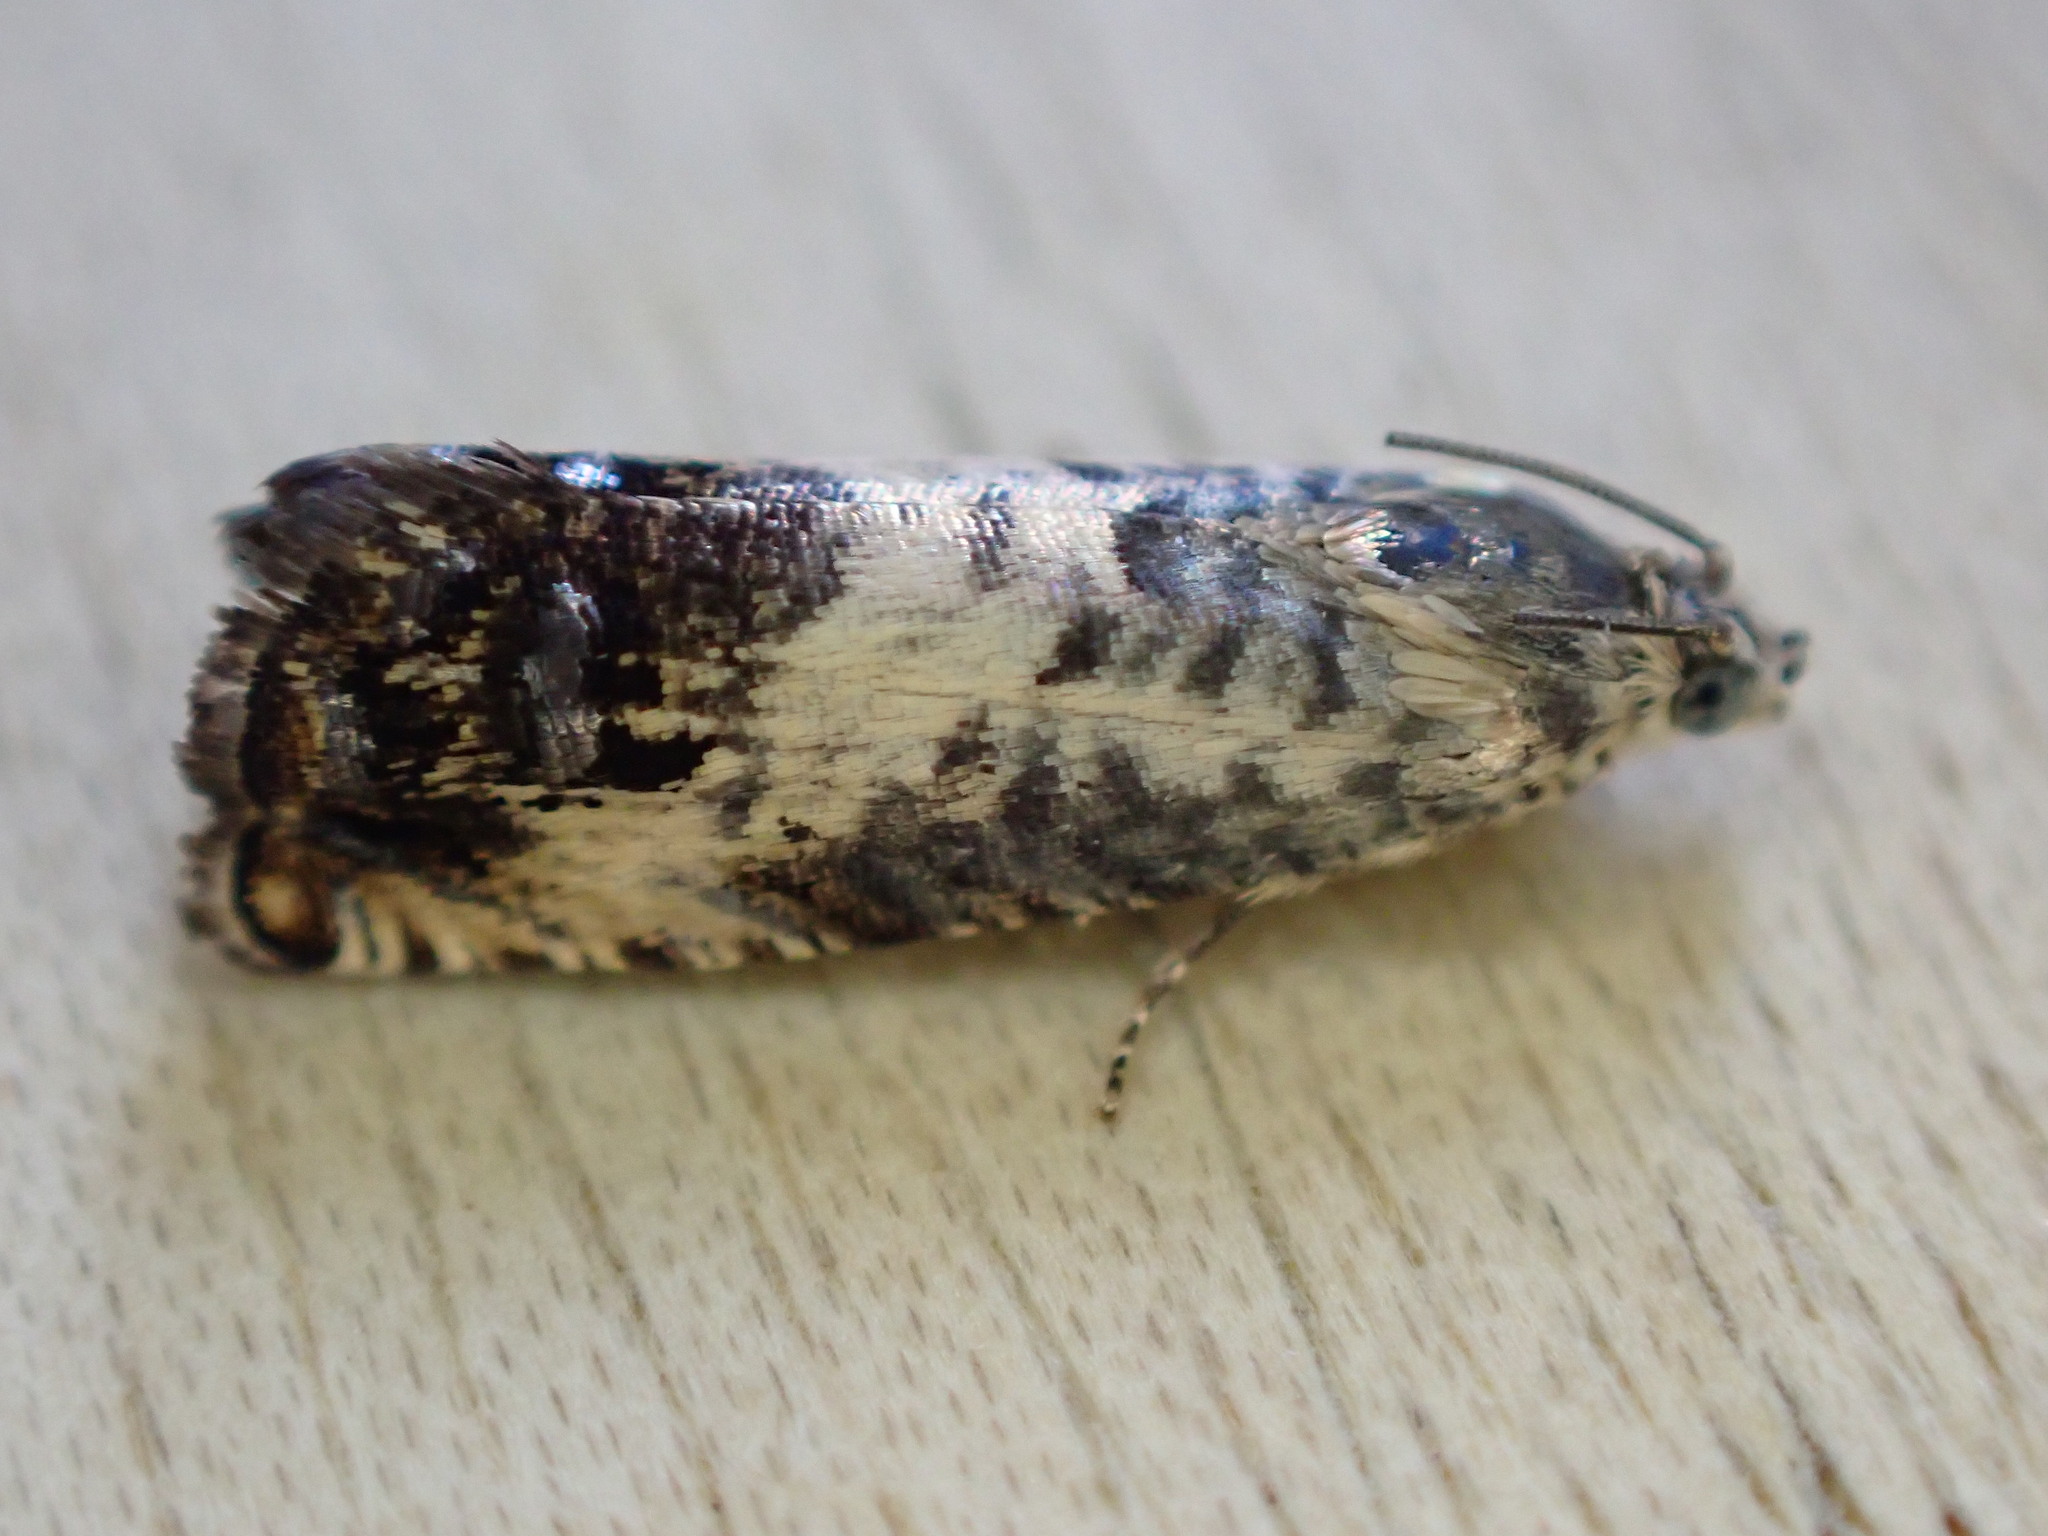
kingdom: Animalia
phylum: Arthropoda
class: Insecta
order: Lepidoptera
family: Tortricidae
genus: Pammene
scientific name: Pammene fasciana
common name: Acorn piercer
